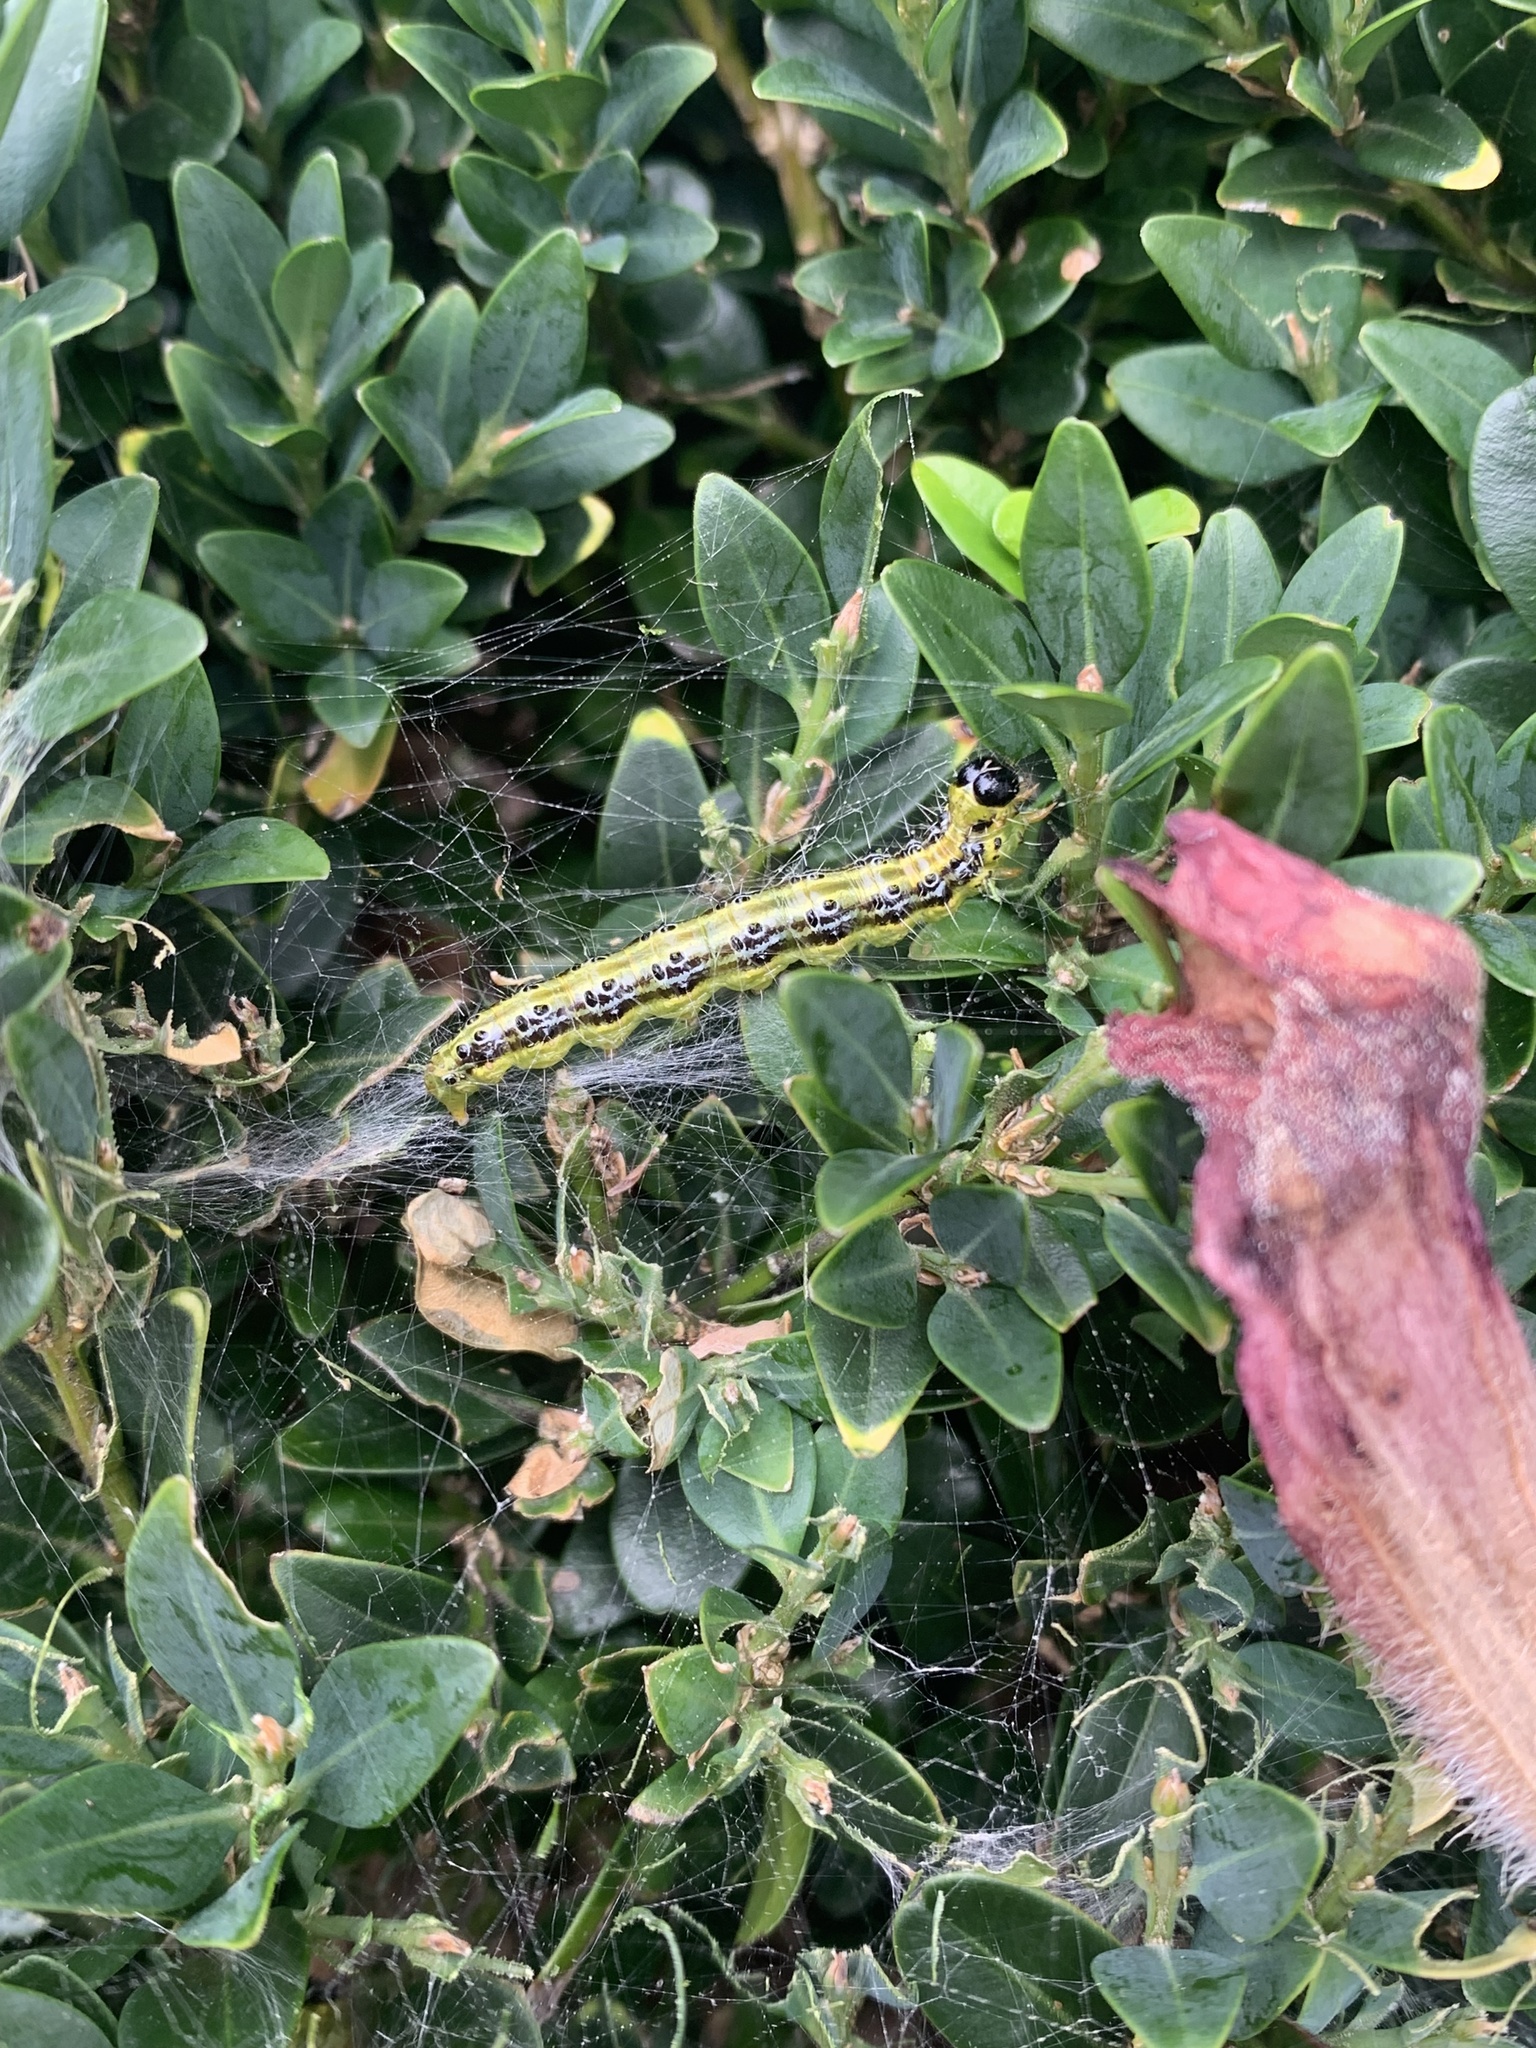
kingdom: Animalia
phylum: Arthropoda
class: Insecta
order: Lepidoptera
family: Crambidae
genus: Cydalima
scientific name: Cydalima perspectalis
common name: Box tree moth
